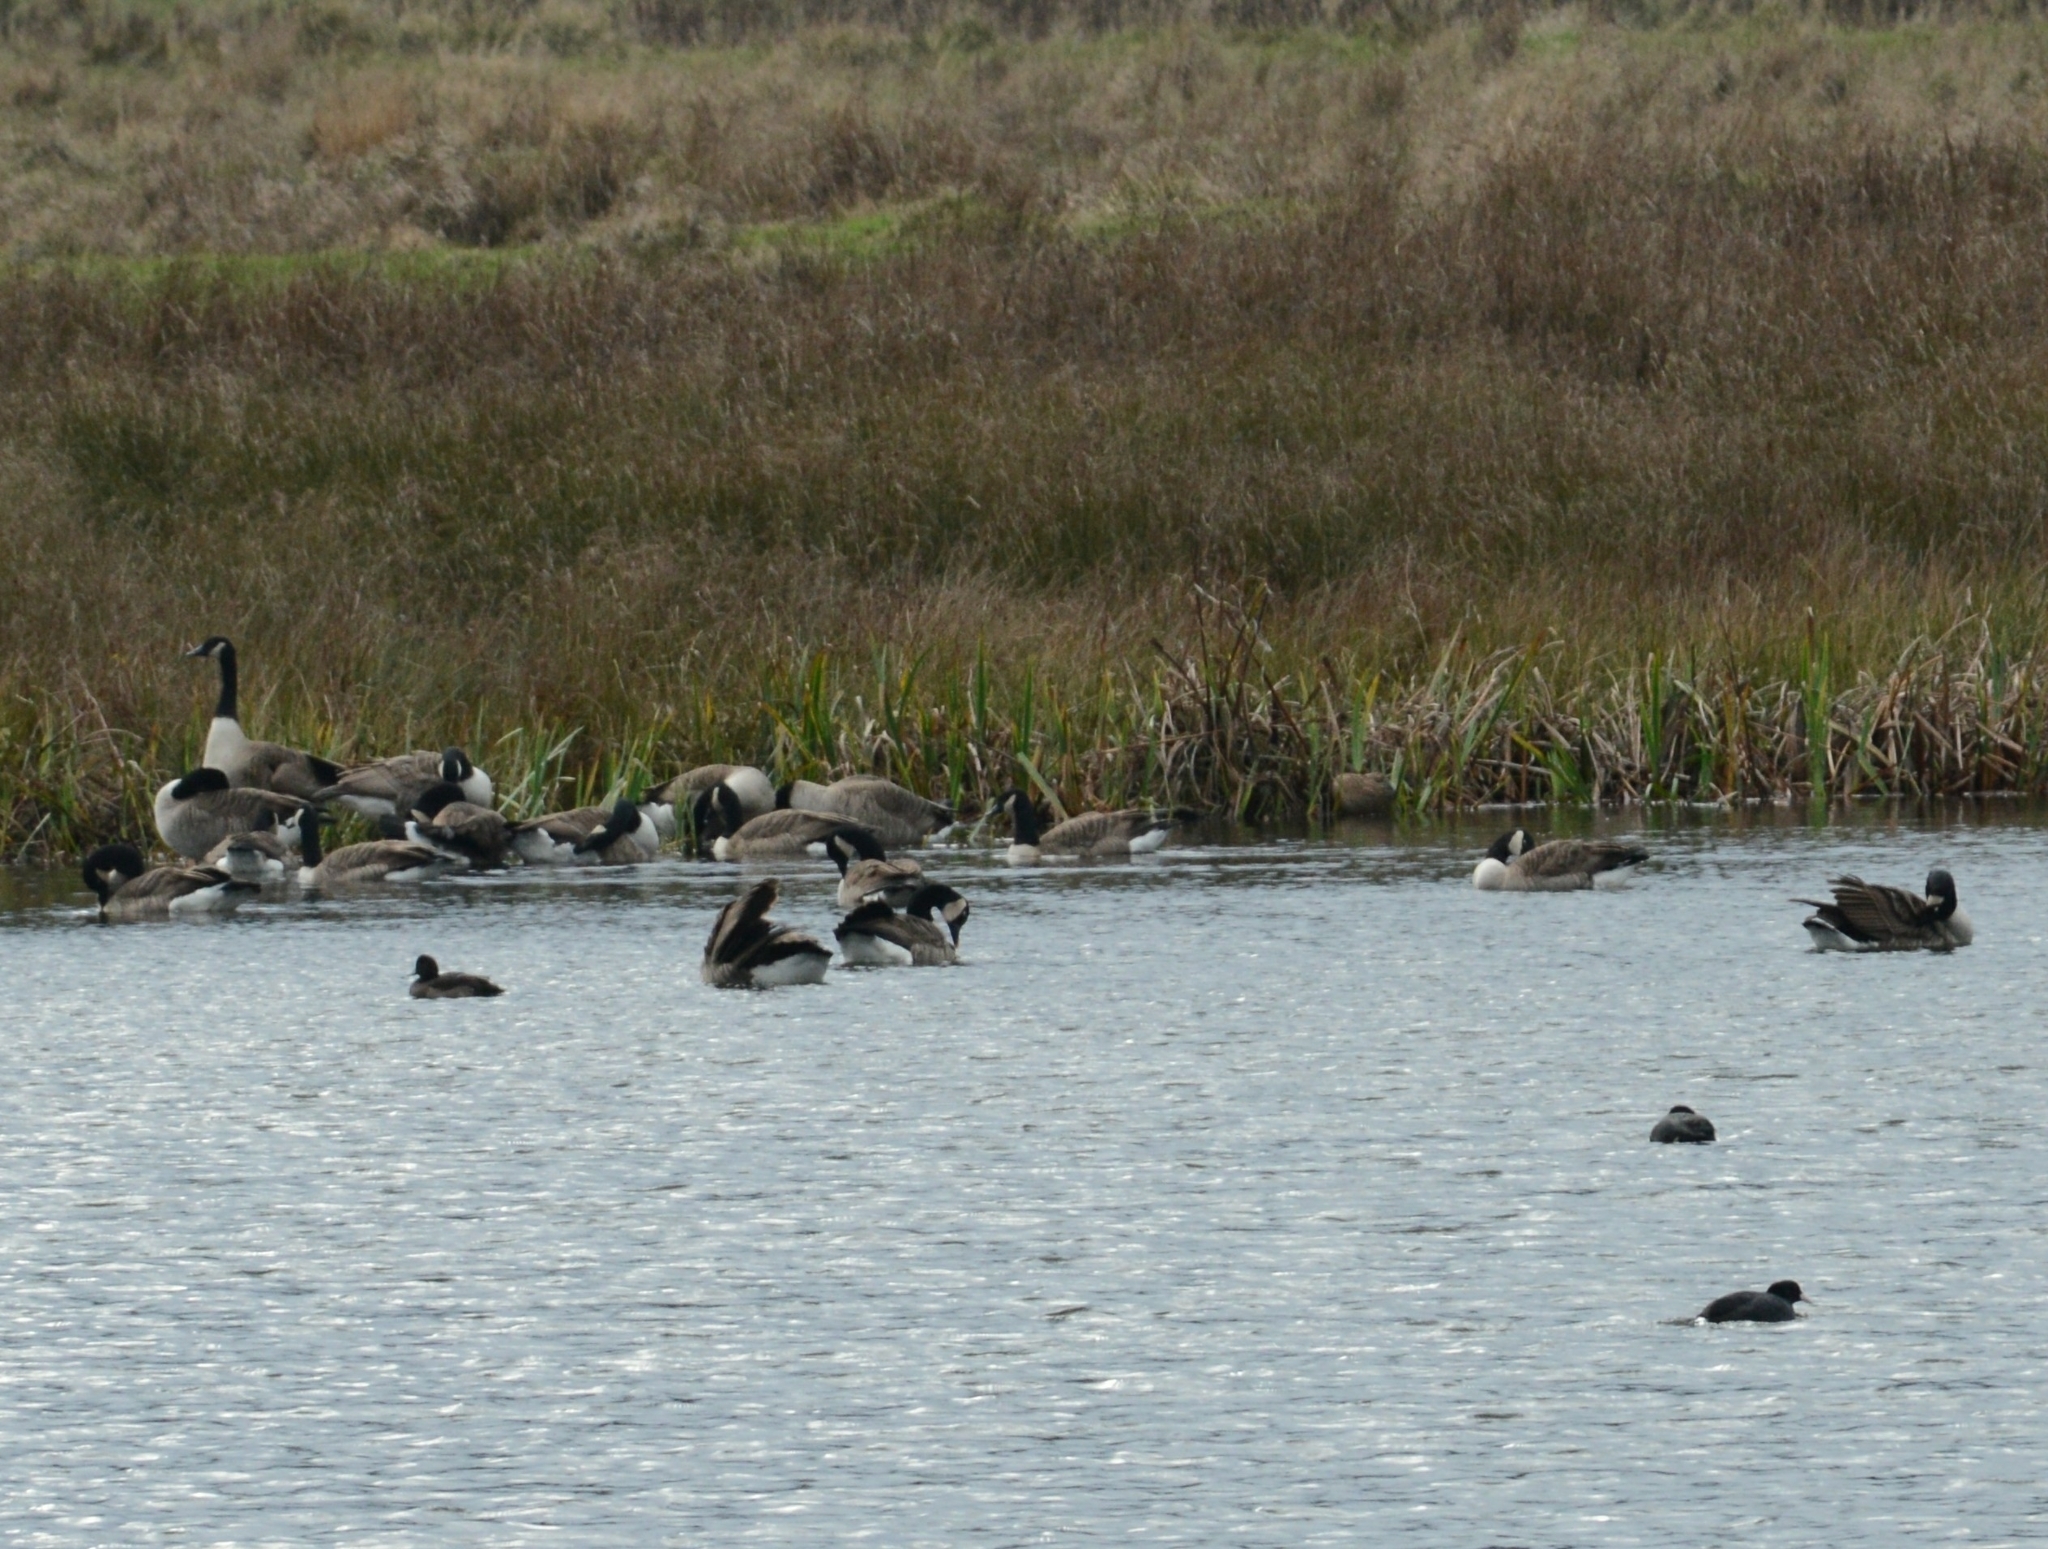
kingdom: Animalia
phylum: Chordata
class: Aves
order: Anseriformes
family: Anatidae
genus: Branta
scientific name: Branta canadensis
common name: Canada goose
